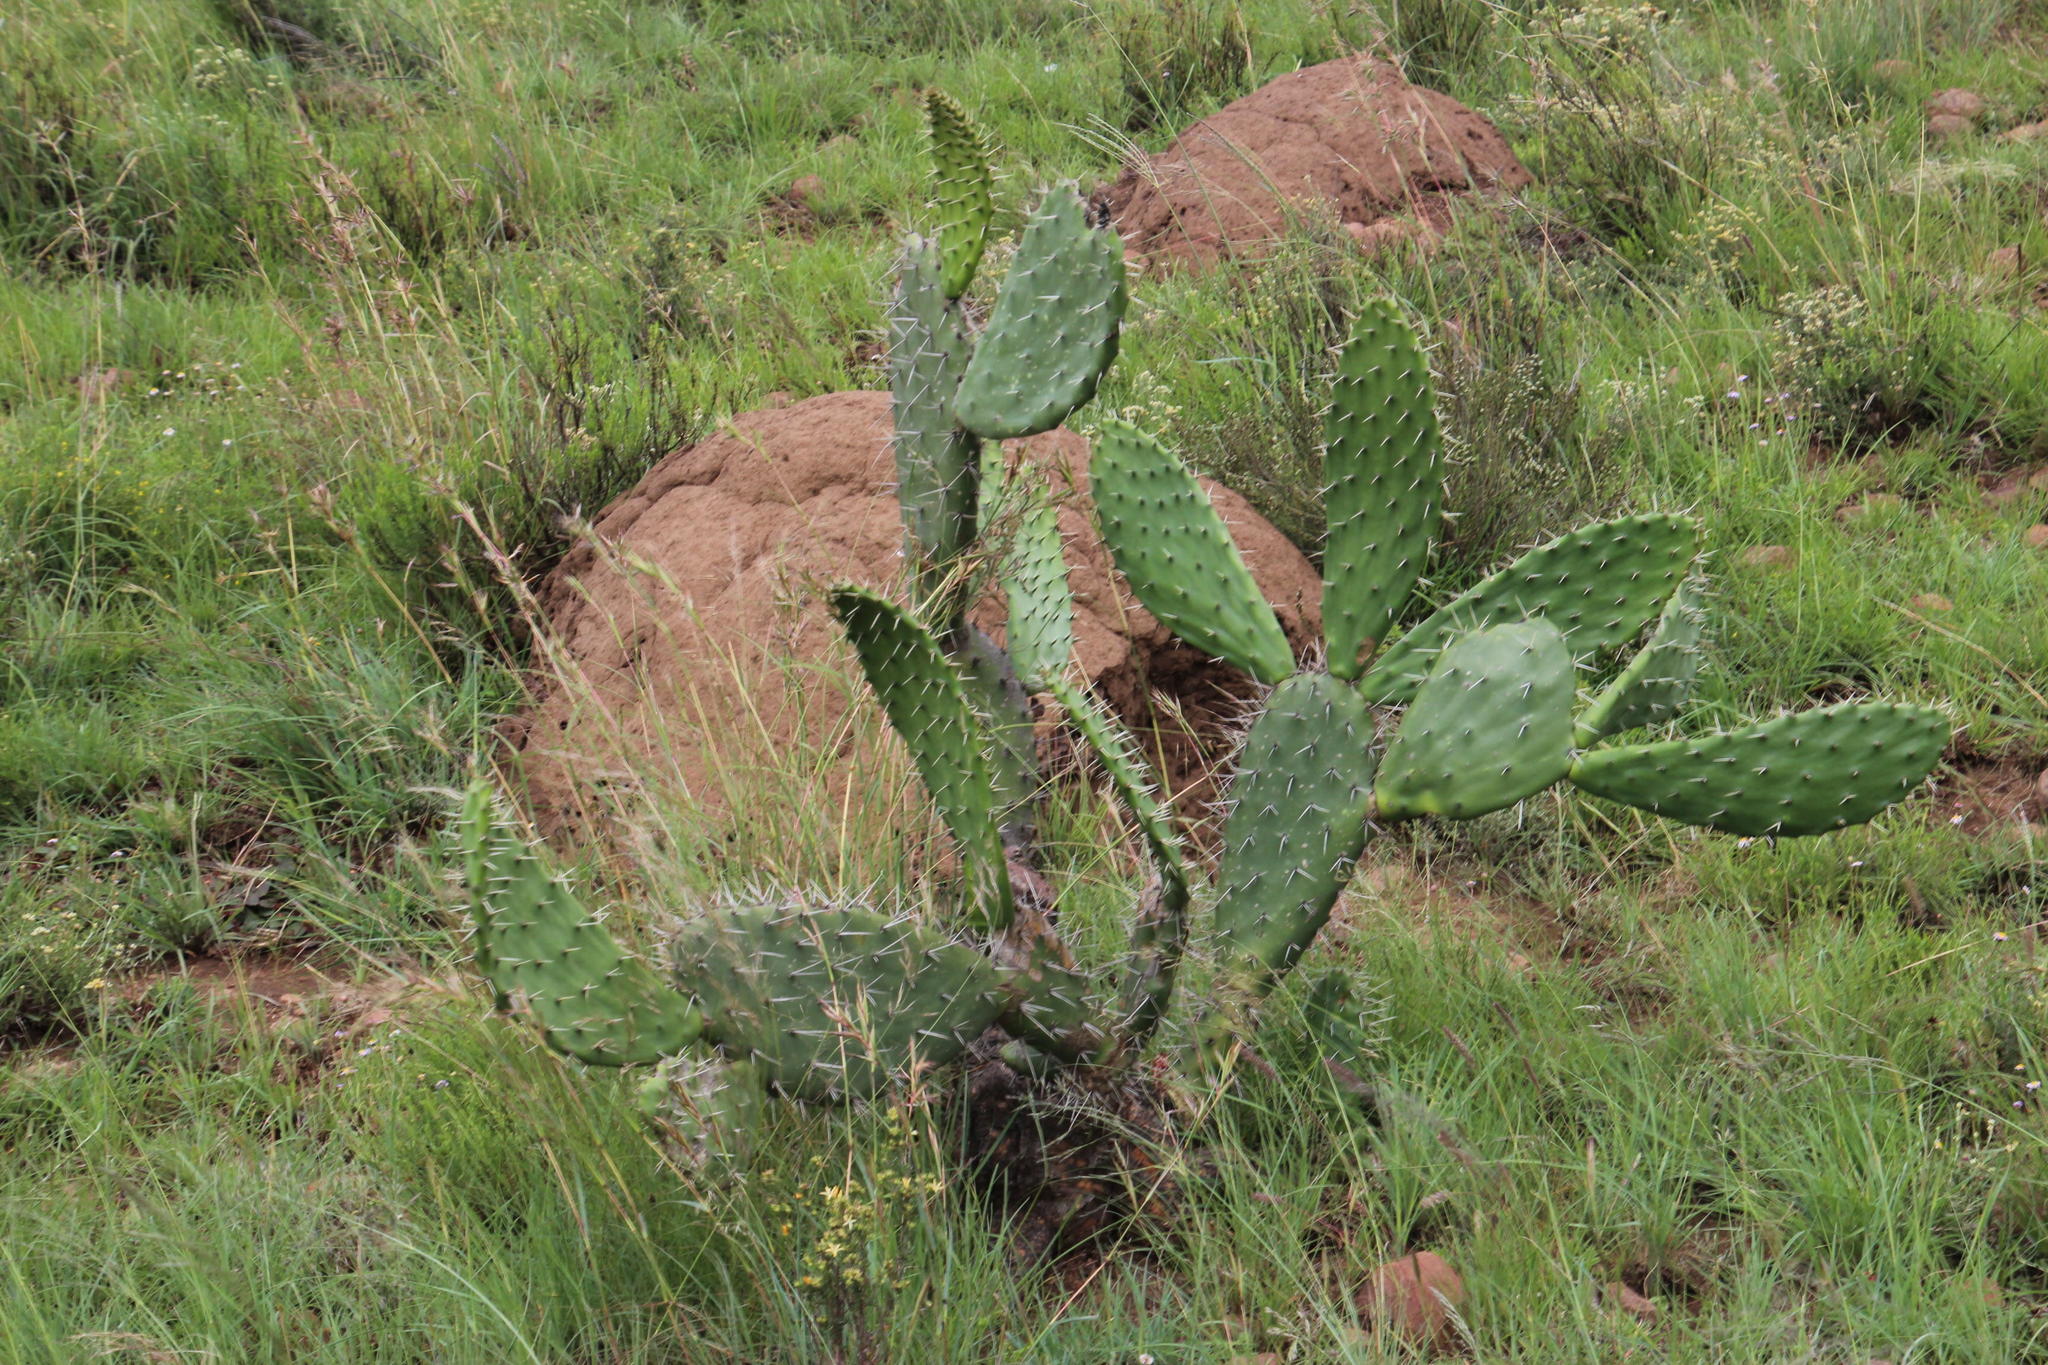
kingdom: Plantae
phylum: Tracheophyta
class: Magnoliopsida
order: Caryophyllales
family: Cactaceae
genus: Opuntia
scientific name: Opuntia ficus-indica
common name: Barbary fig
